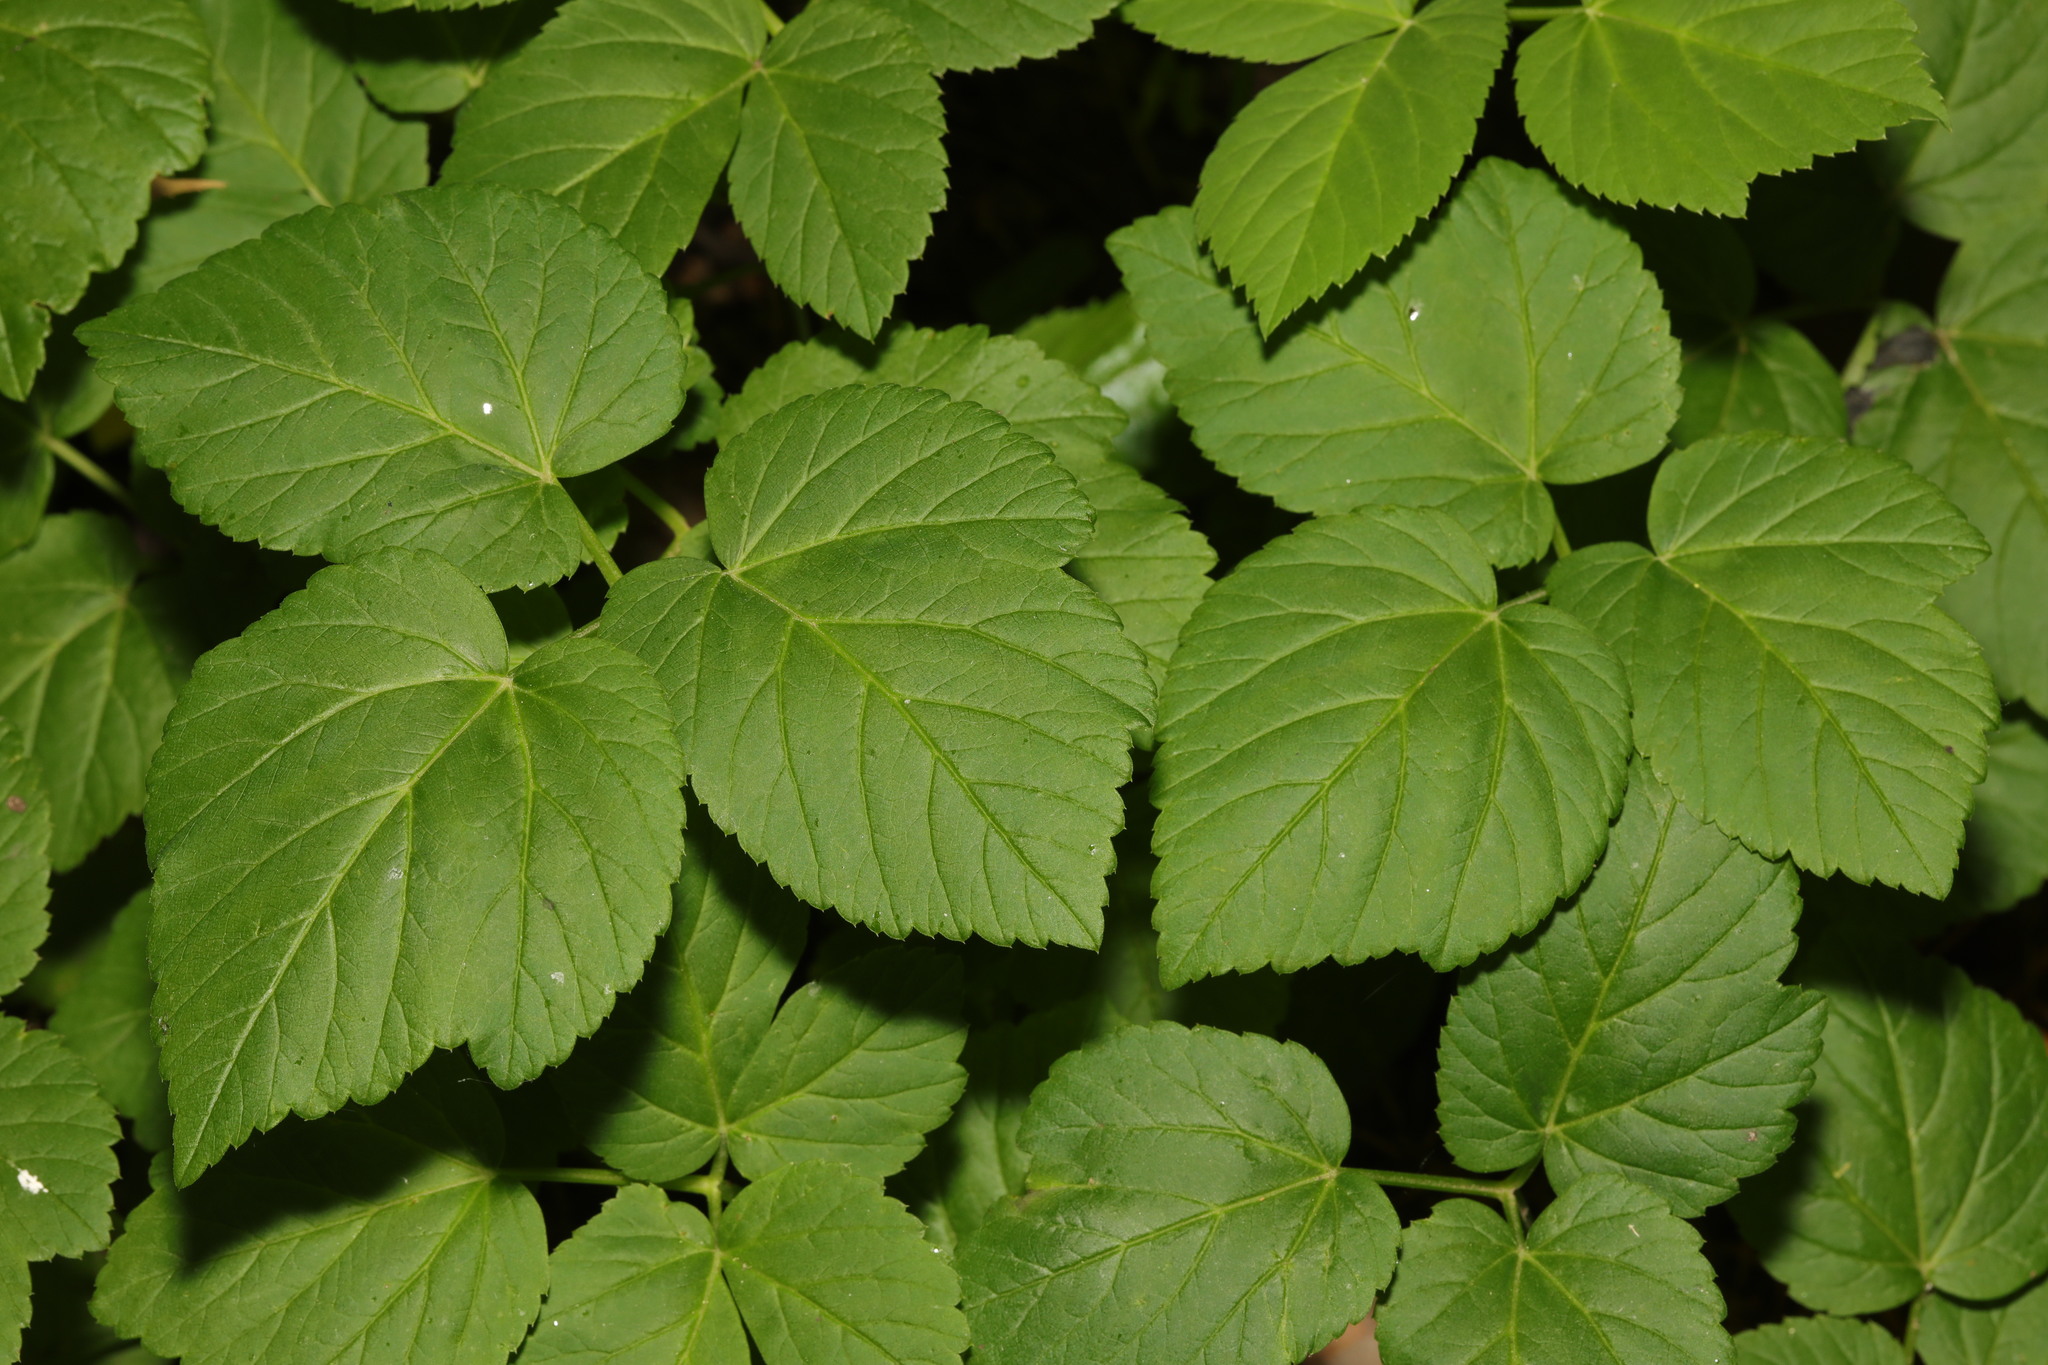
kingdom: Plantae
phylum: Tracheophyta
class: Magnoliopsida
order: Apiales
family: Apiaceae
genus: Aegopodium
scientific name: Aegopodium podagraria
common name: Ground-elder
